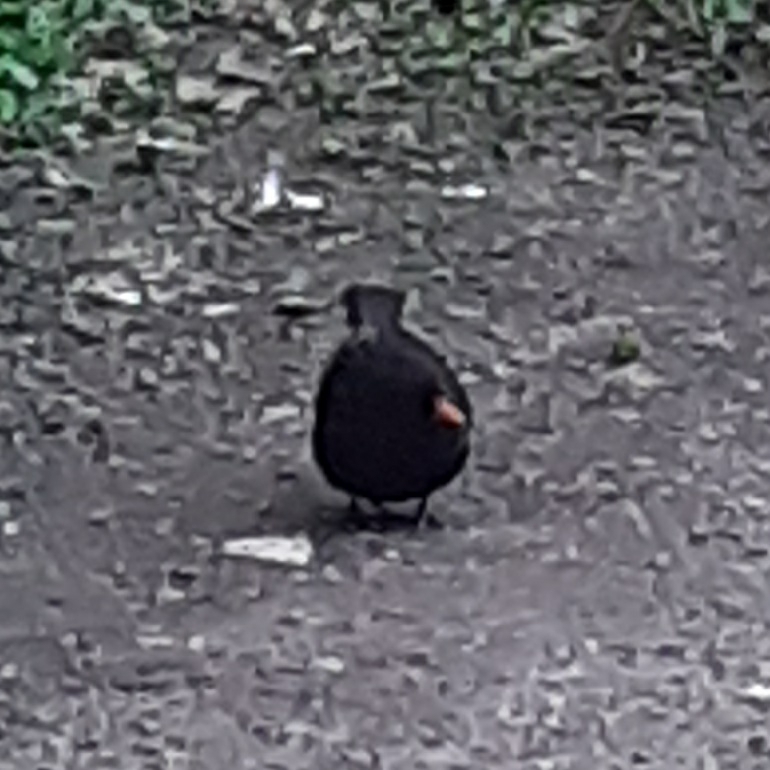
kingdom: Animalia
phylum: Chordata
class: Aves
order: Passeriformes
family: Turdidae
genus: Turdus
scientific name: Turdus merula
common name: Common blackbird
